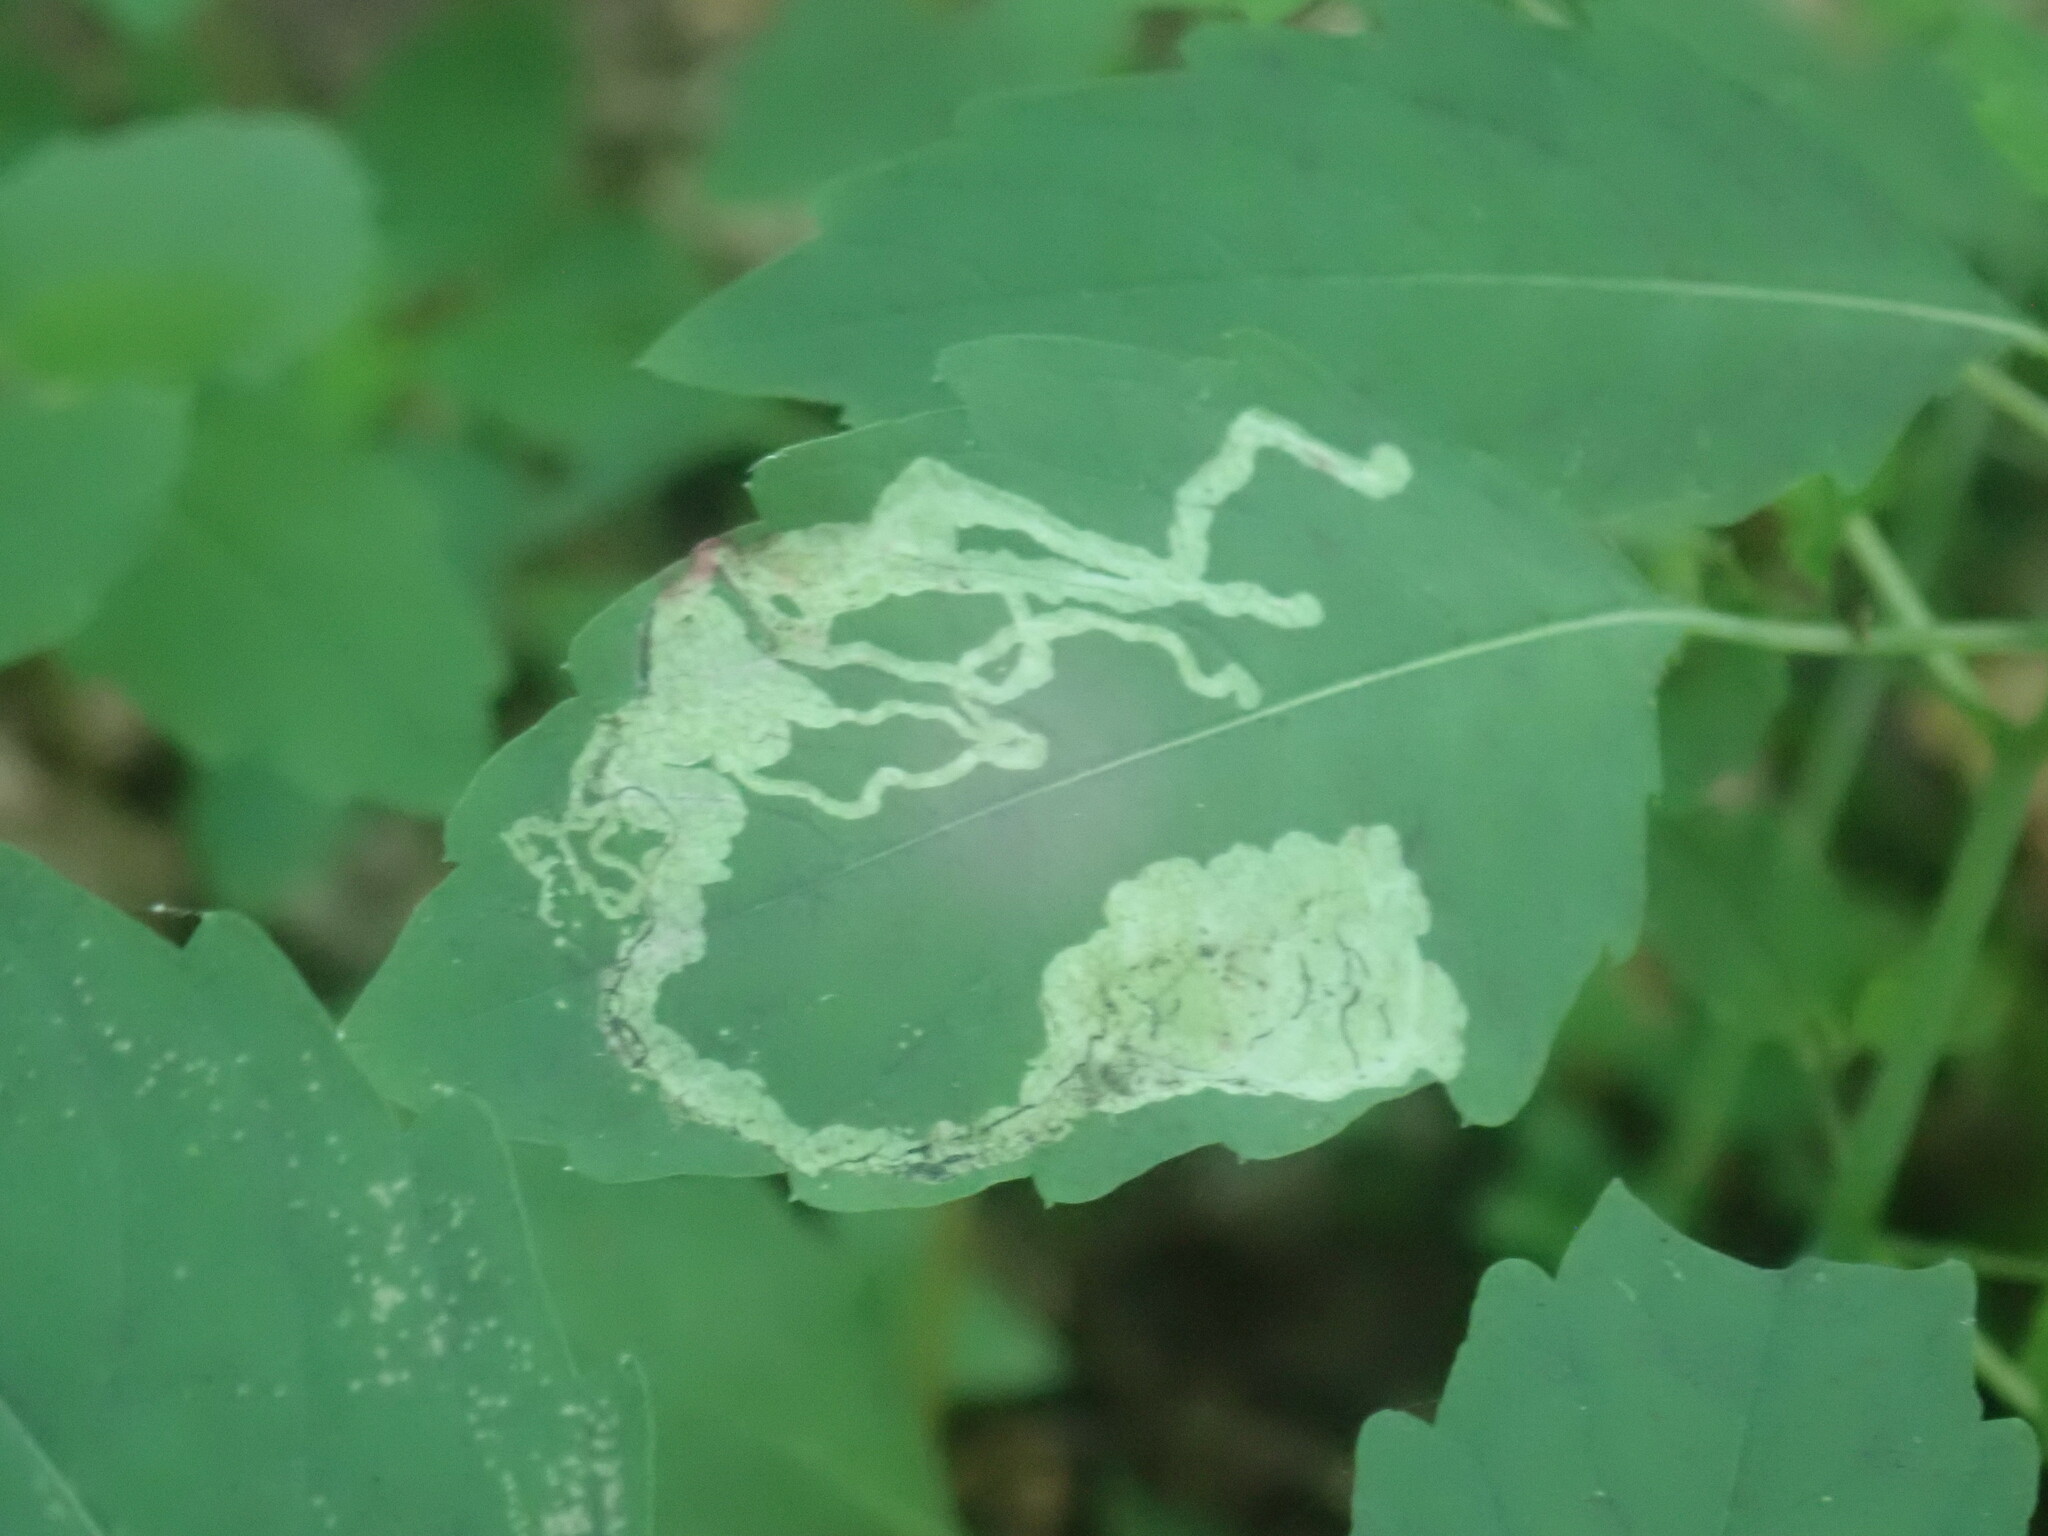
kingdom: Animalia
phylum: Arthropoda
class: Insecta
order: Diptera
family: Agromyzidae
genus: Phytoliriomyza
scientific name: Phytoliriomyza melampyga
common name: Jewelweed leaf-miner fly
